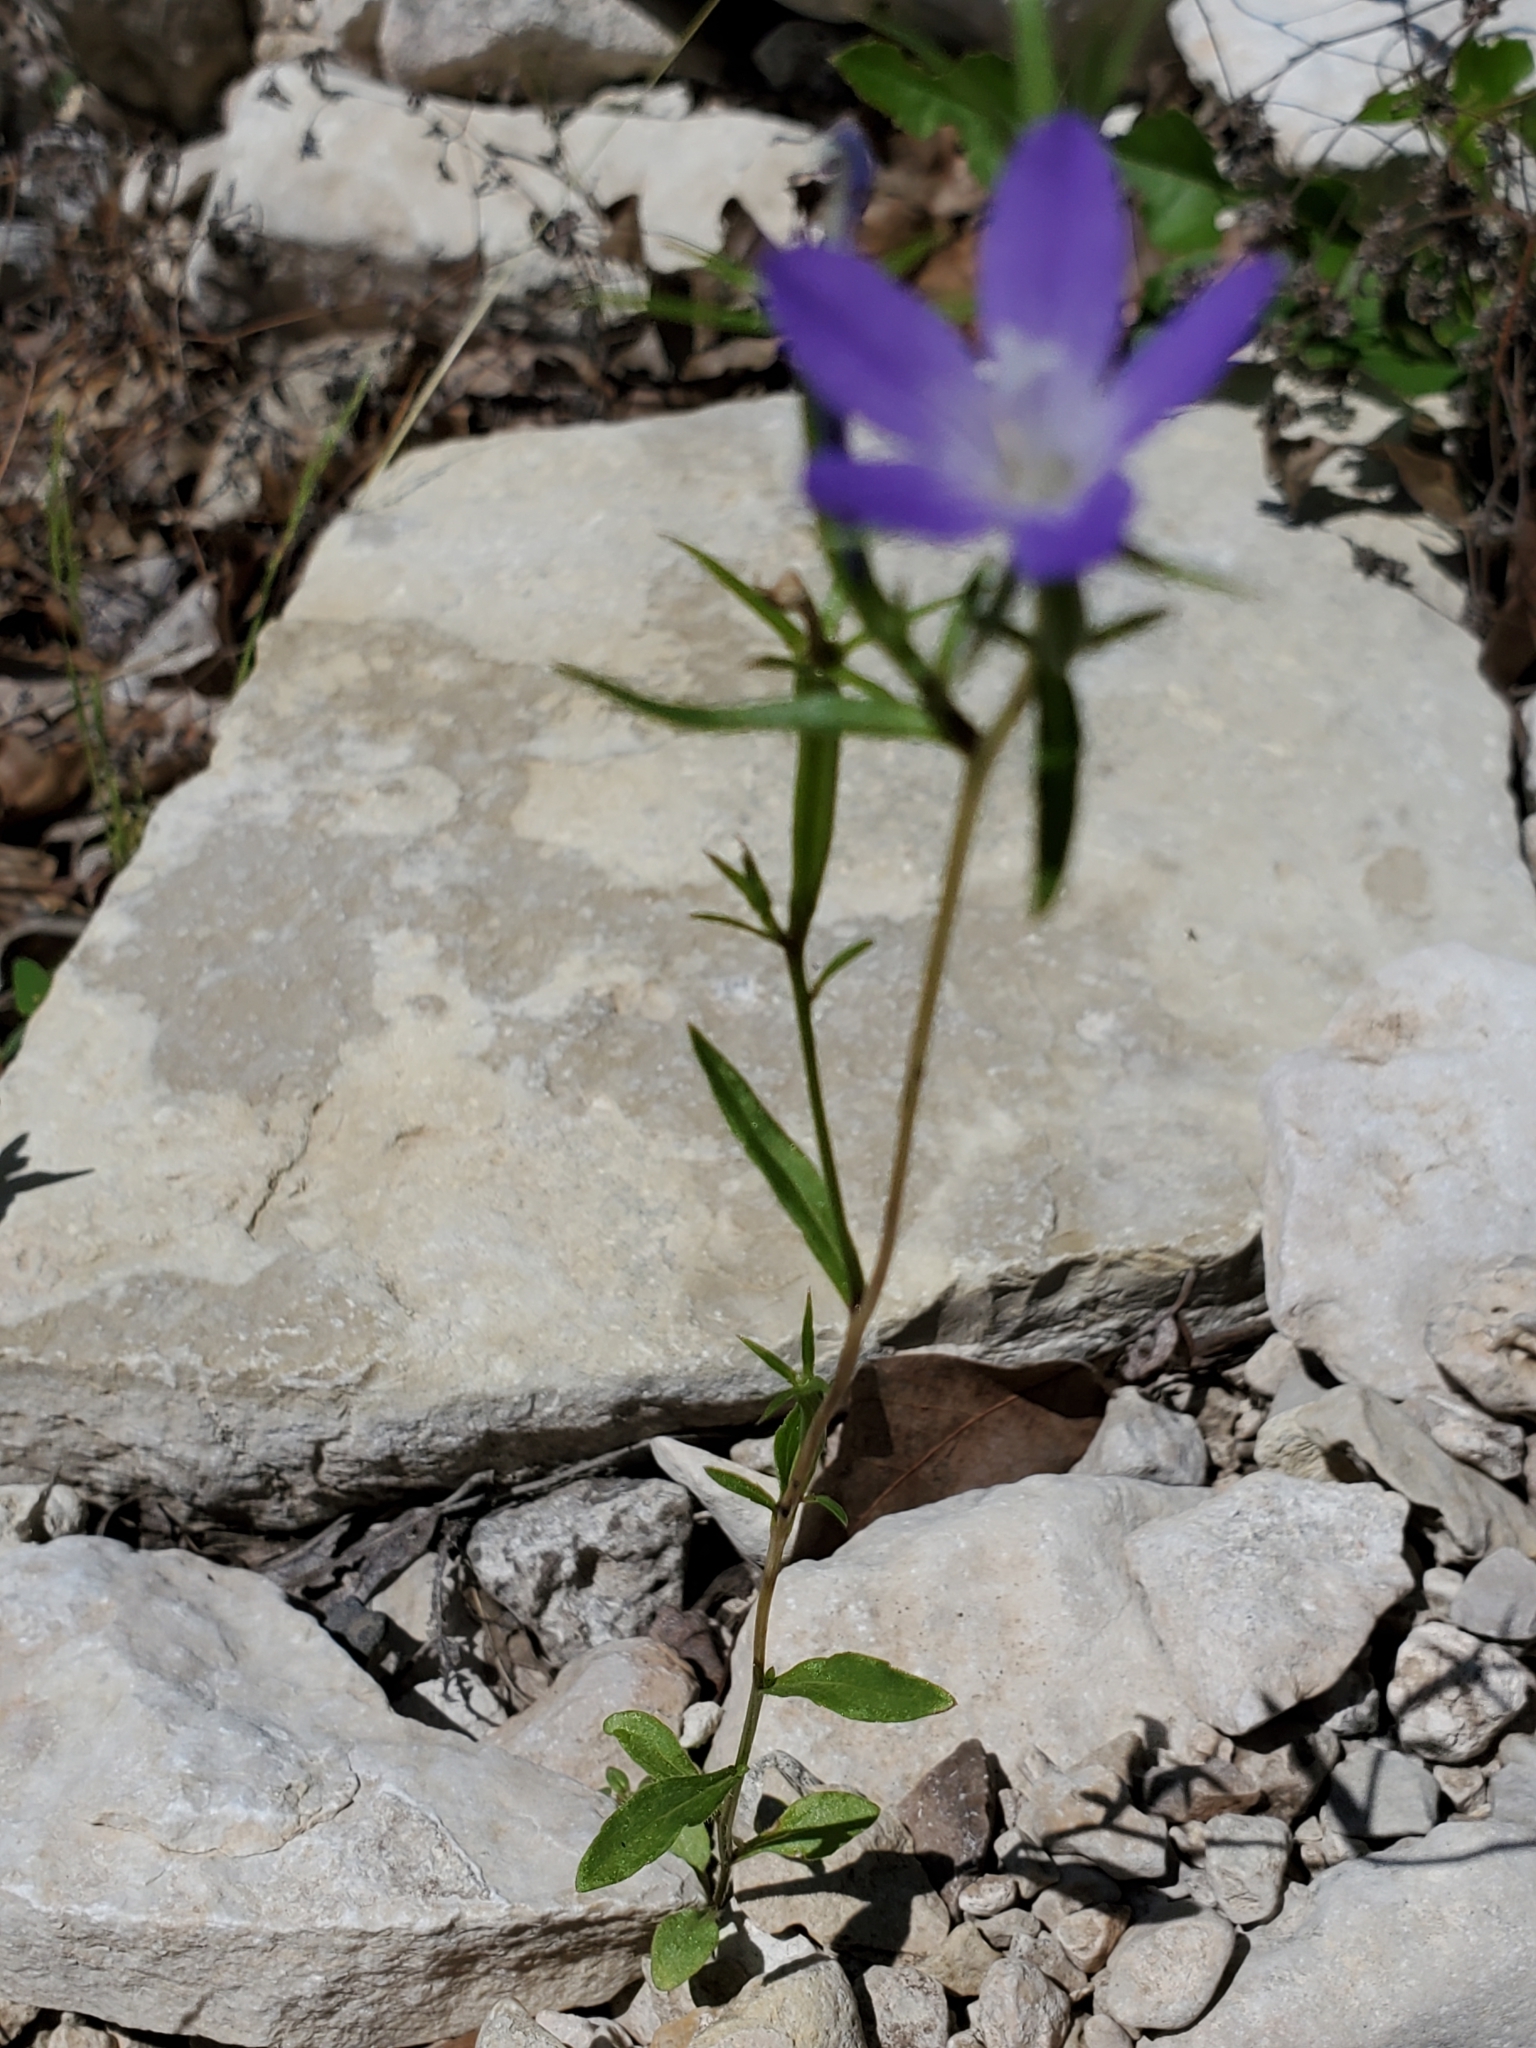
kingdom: Plantae
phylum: Tracheophyta
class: Magnoliopsida
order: Asterales
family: Campanulaceae
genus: Triodanis
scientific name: Triodanis coloradoensis
